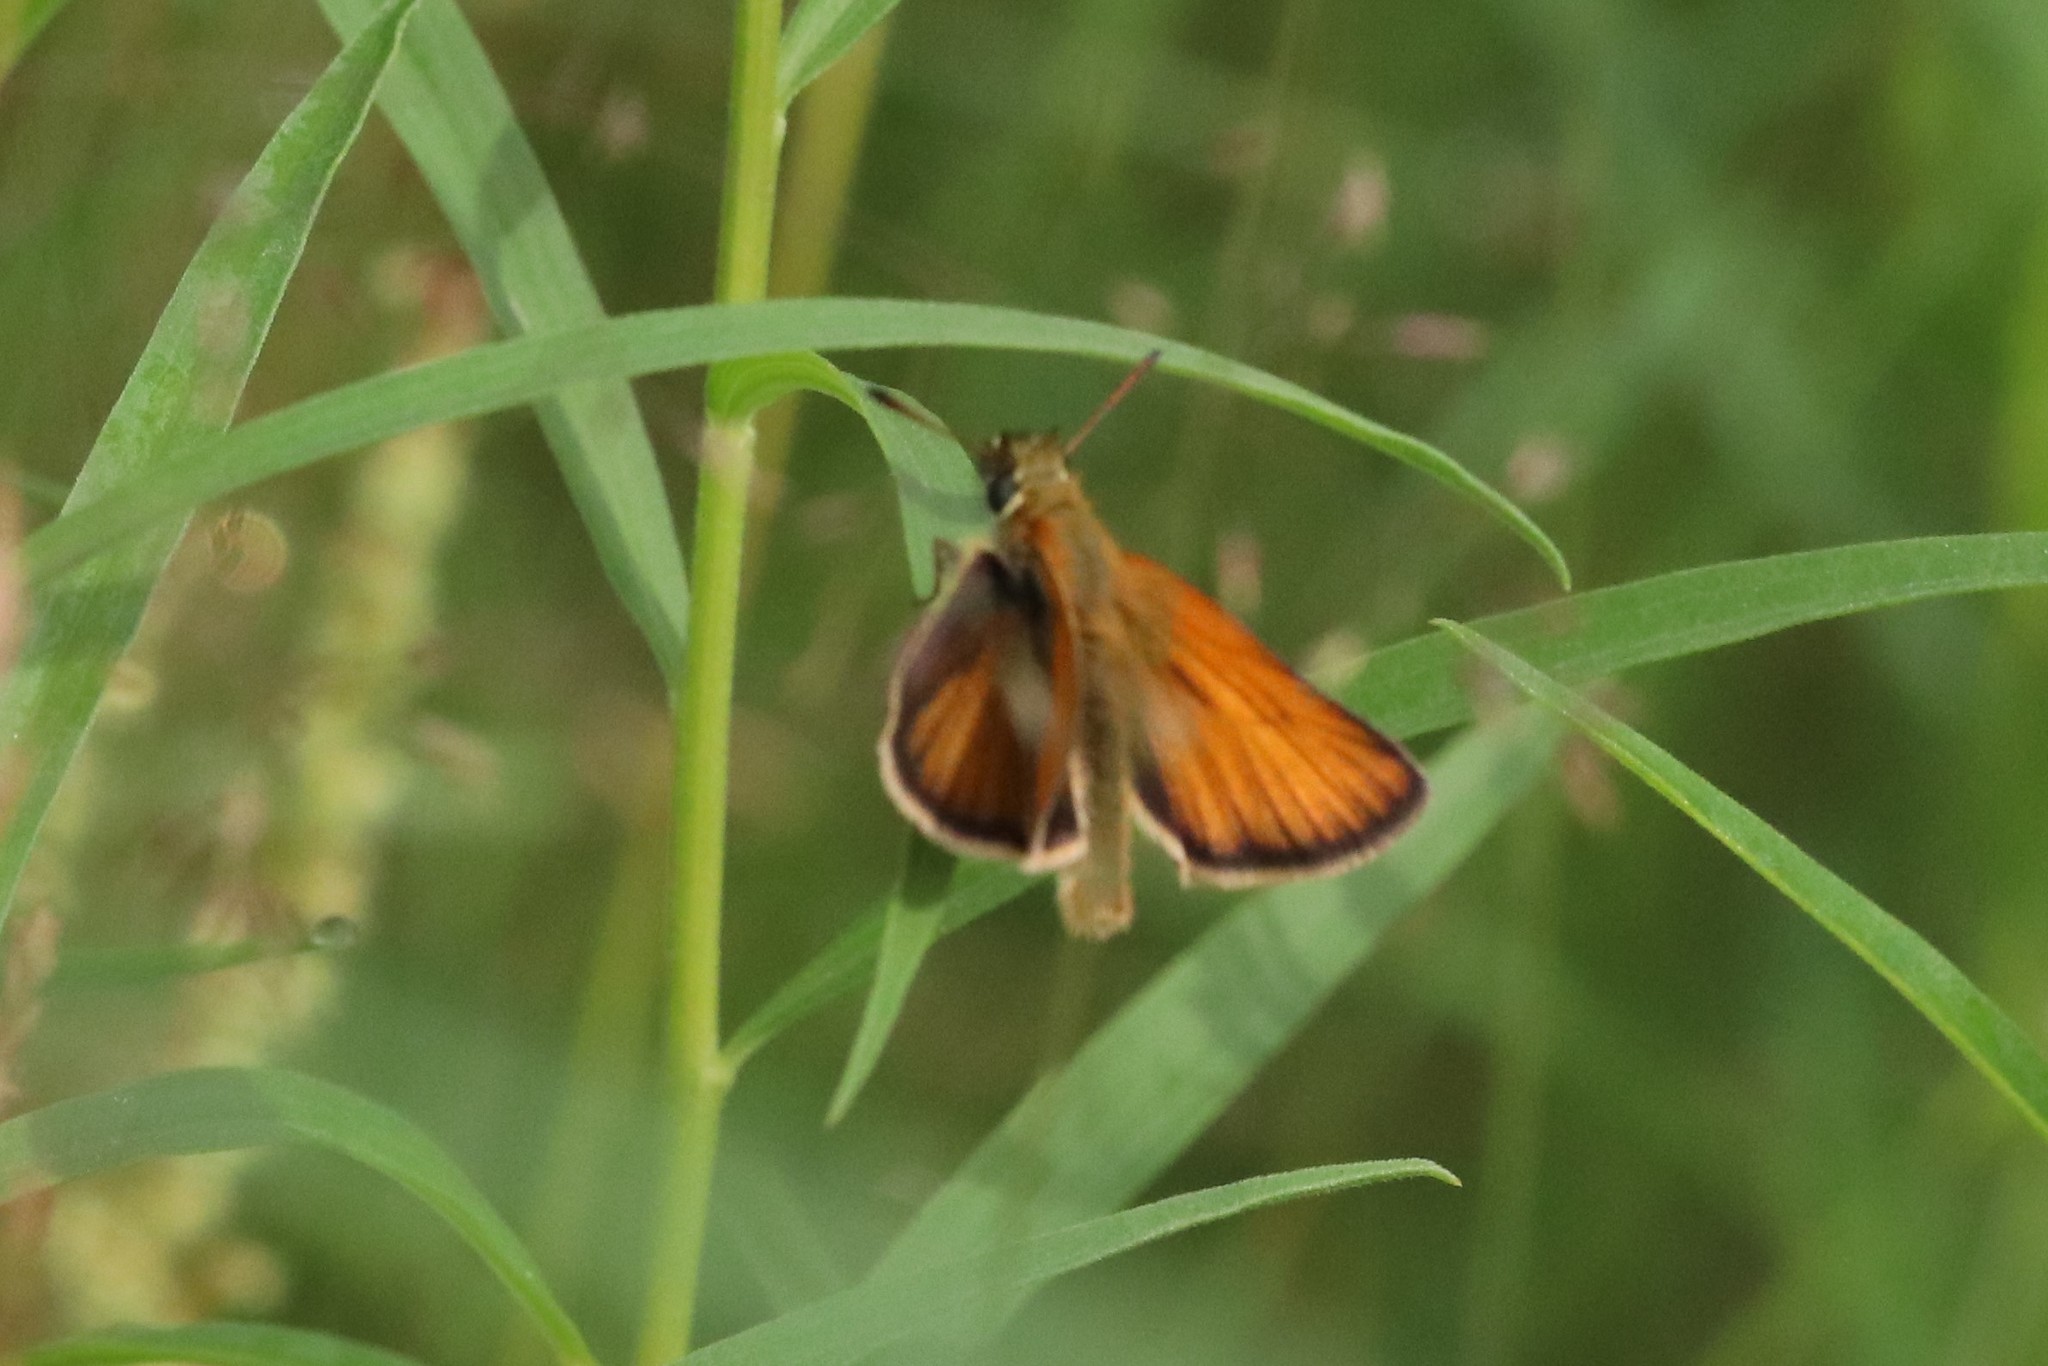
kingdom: Animalia
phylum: Arthropoda
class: Insecta
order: Lepidoptera
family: Hesperiidae
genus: Thymelicus
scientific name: Thymelicus lineola
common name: Essex skipper
